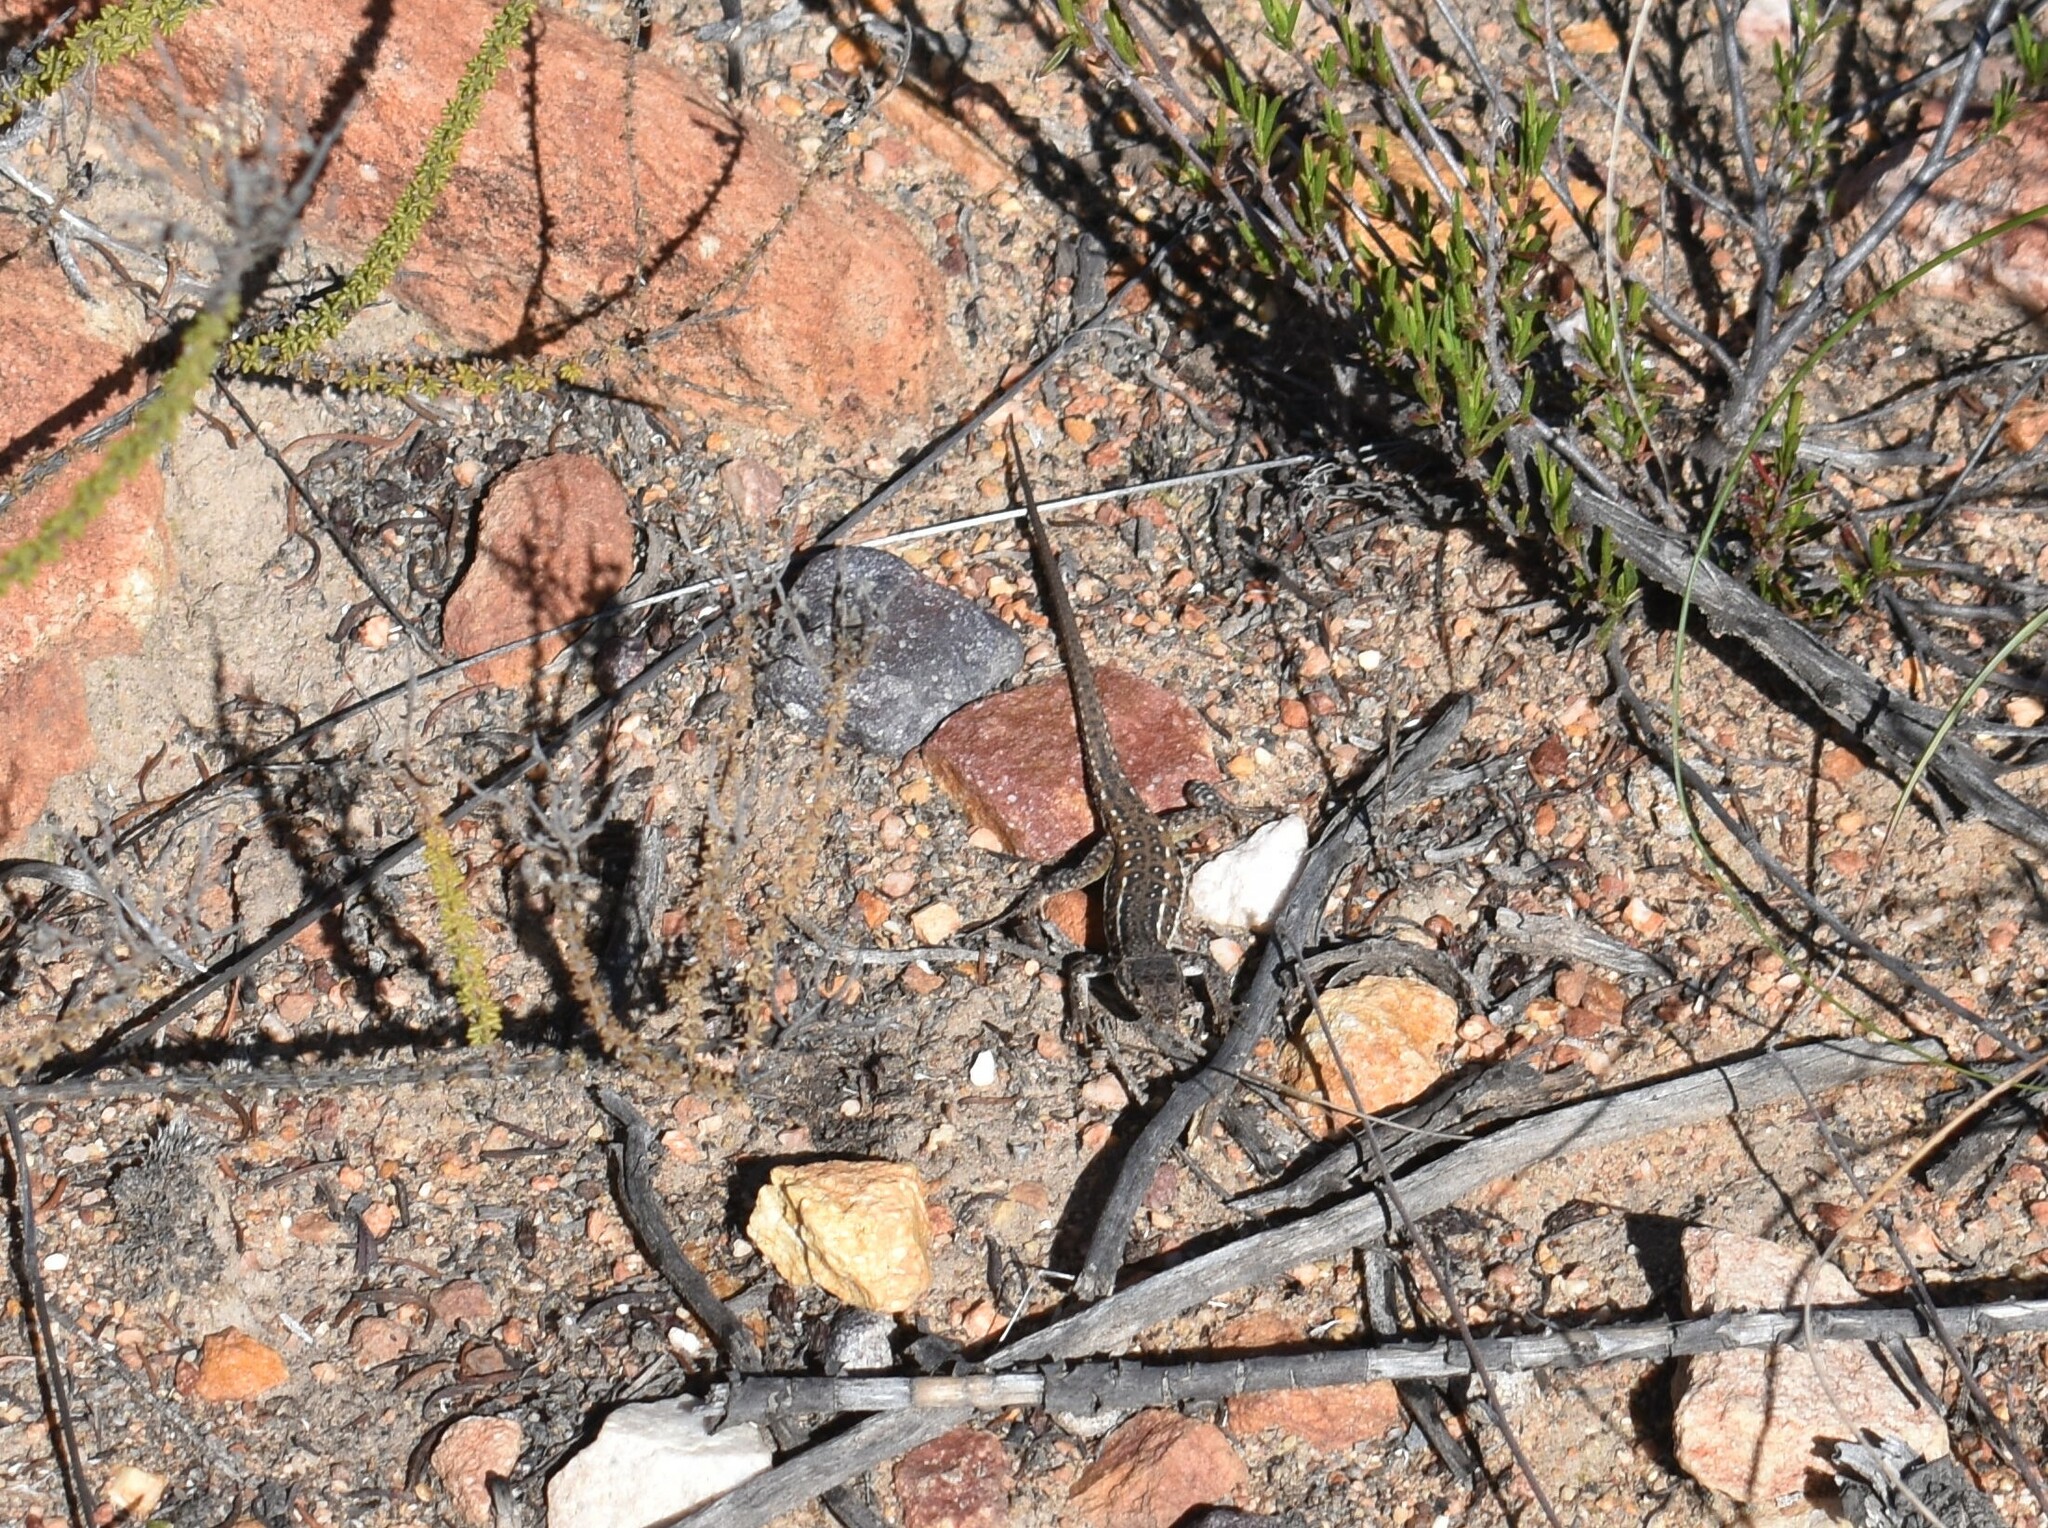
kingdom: Animalia
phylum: Chordata
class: Squamata
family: Lacertidae
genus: Pedioplanis
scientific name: Pedioplanis lineoocellata
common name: Spotted sand lizard
